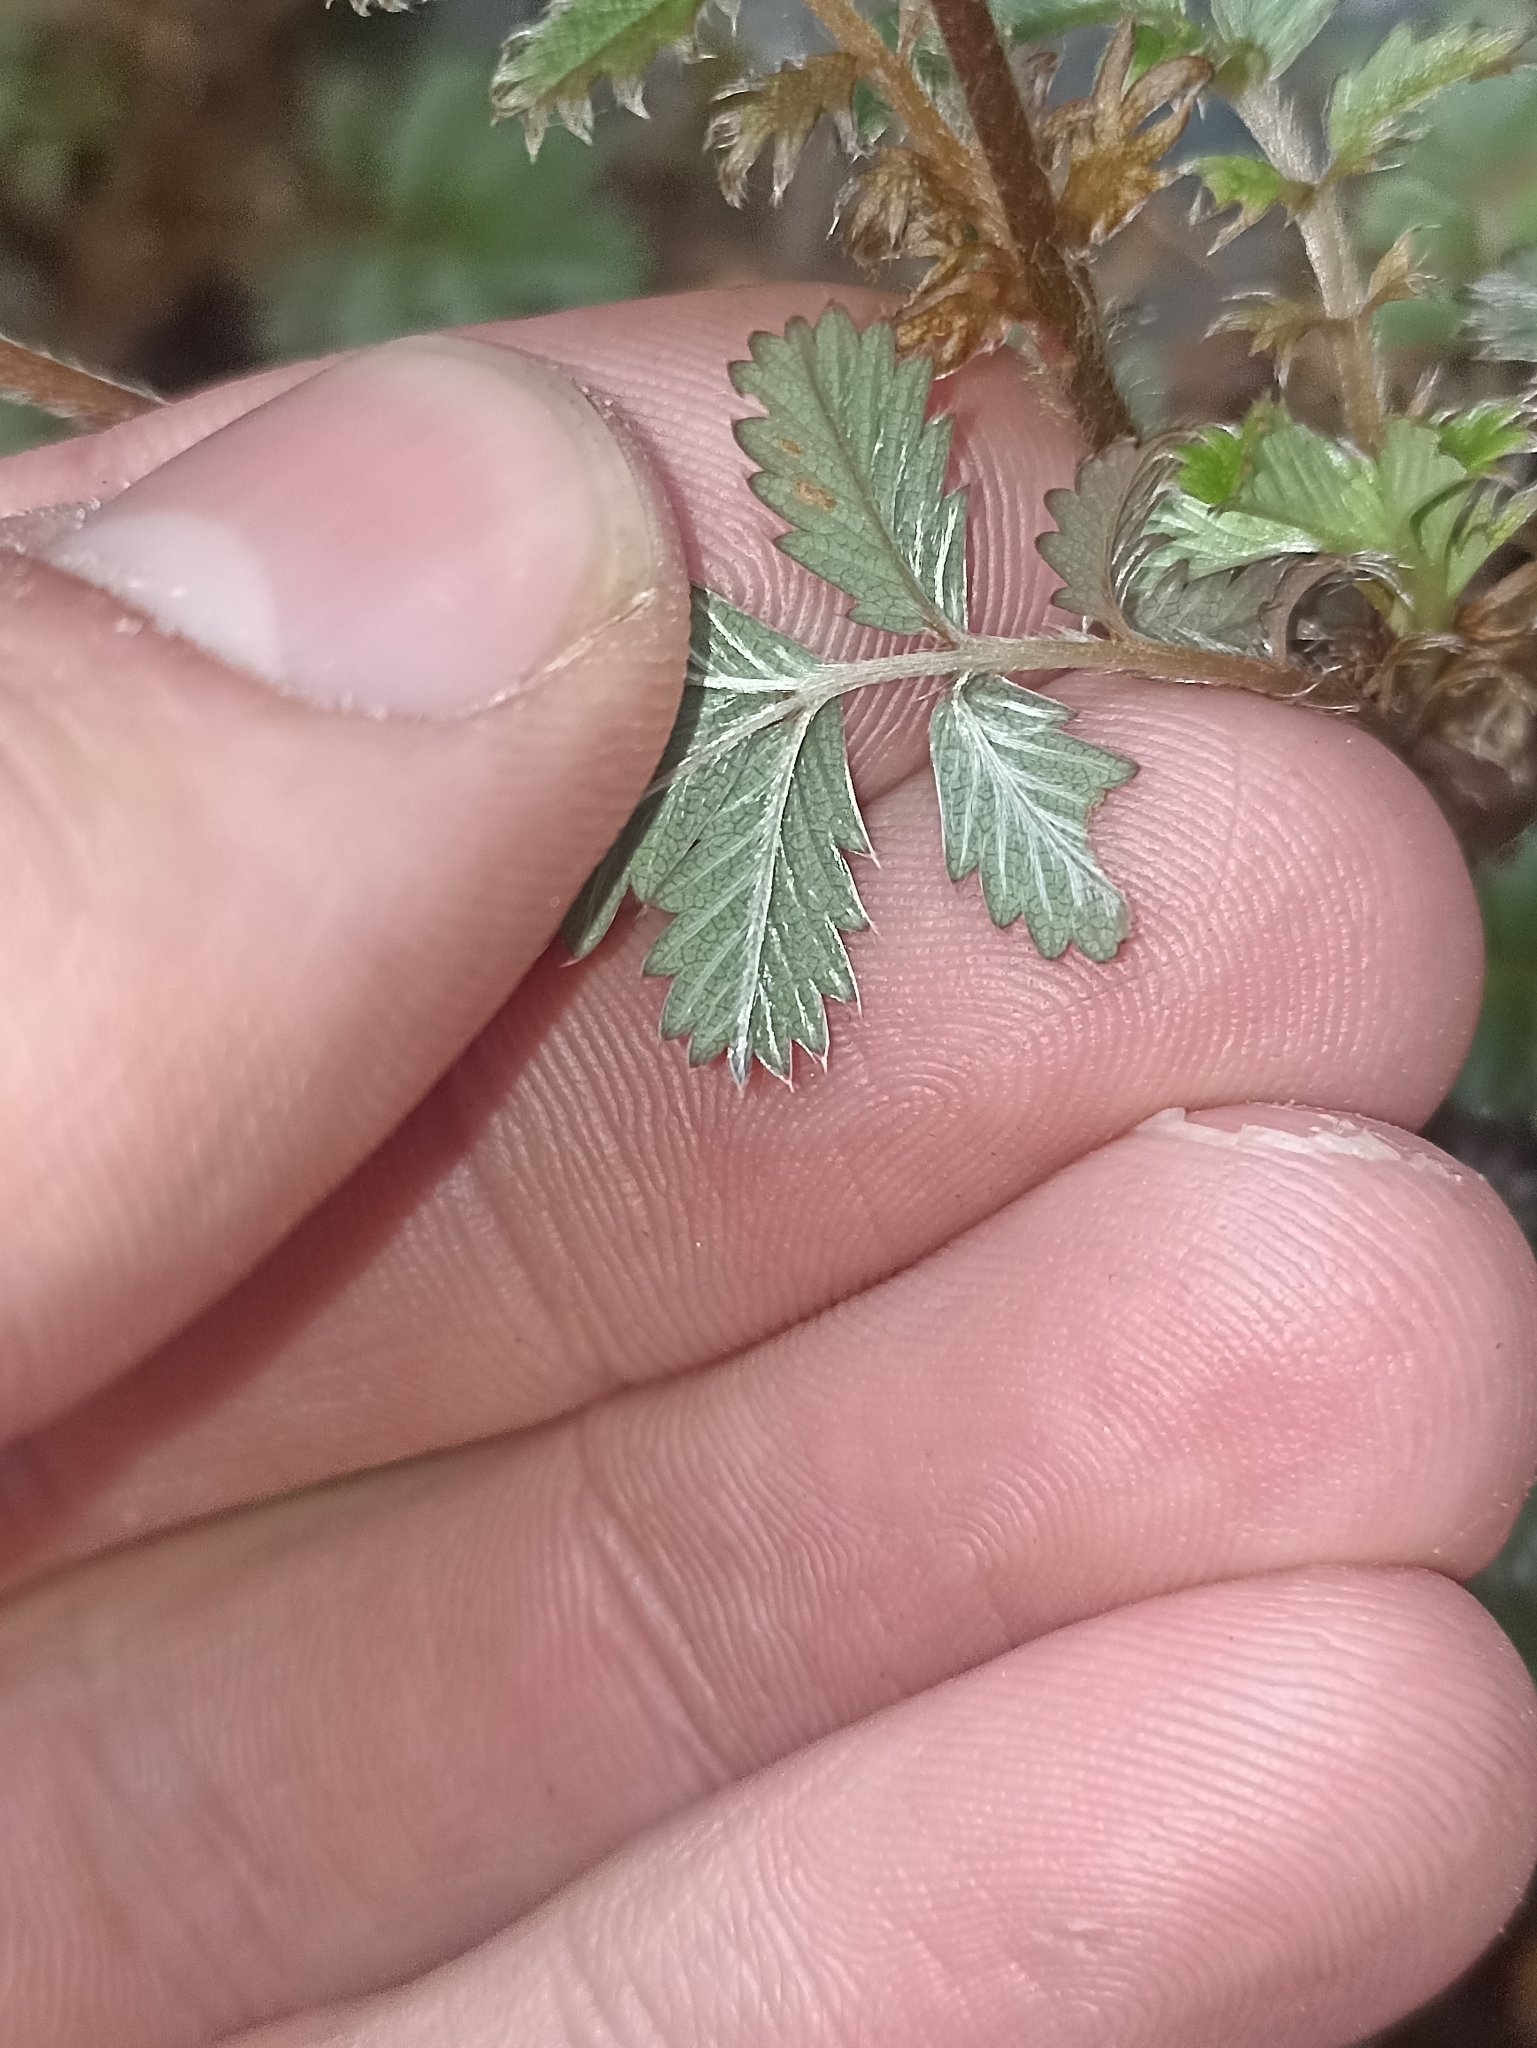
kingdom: Plantae
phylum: Tracheophyta
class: Magnoliopsida
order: Rosales
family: Rosaceae
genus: Acaena
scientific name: Acaena anserinifolia
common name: Bronze pirri-pirri-bur
